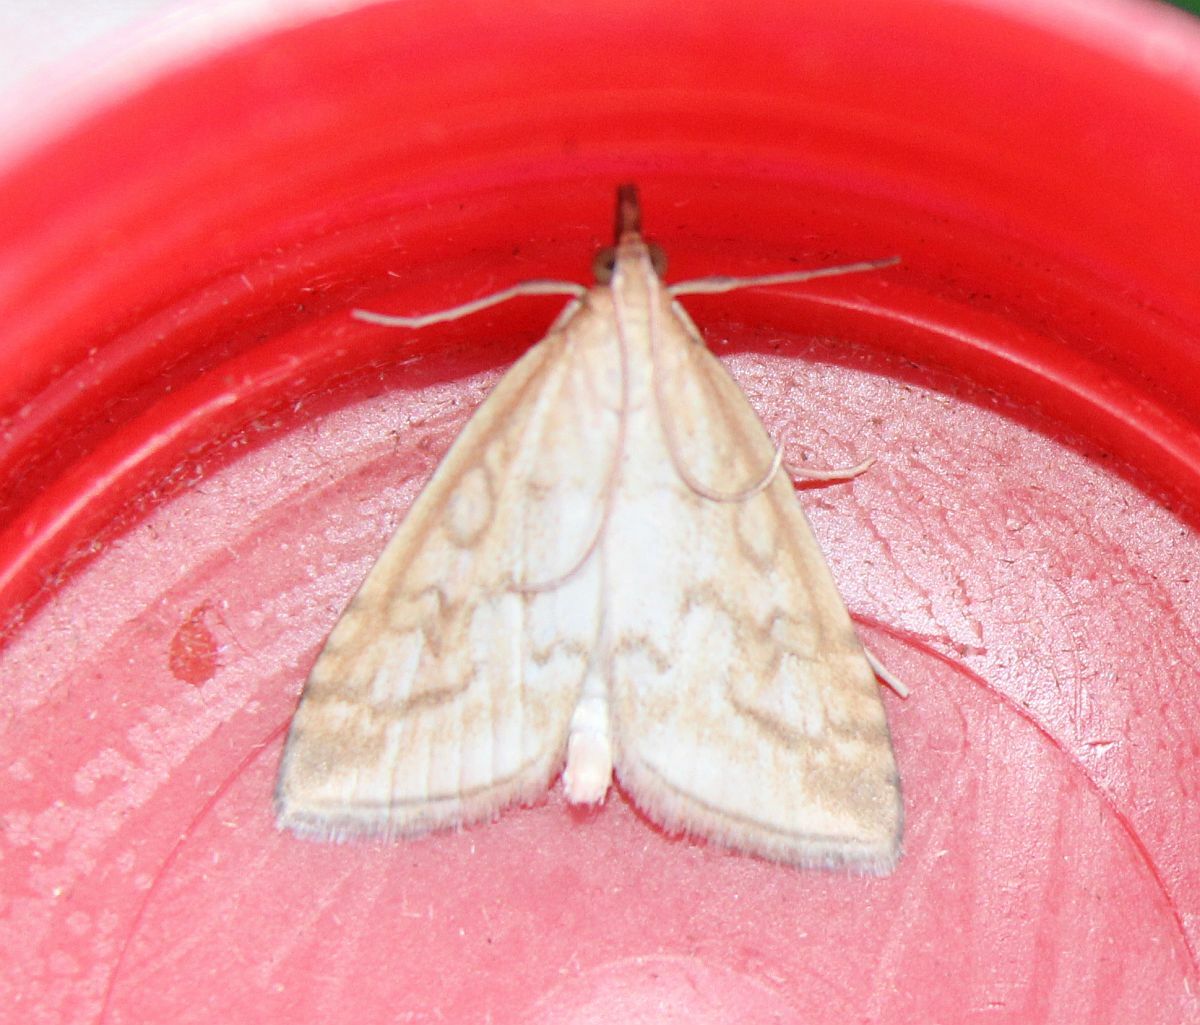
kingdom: Animalia
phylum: Arthropoda
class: Insecta
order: Lepidoptera
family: Crambidae
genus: Udea
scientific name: Udea lutealis
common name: Pale straw pearl
